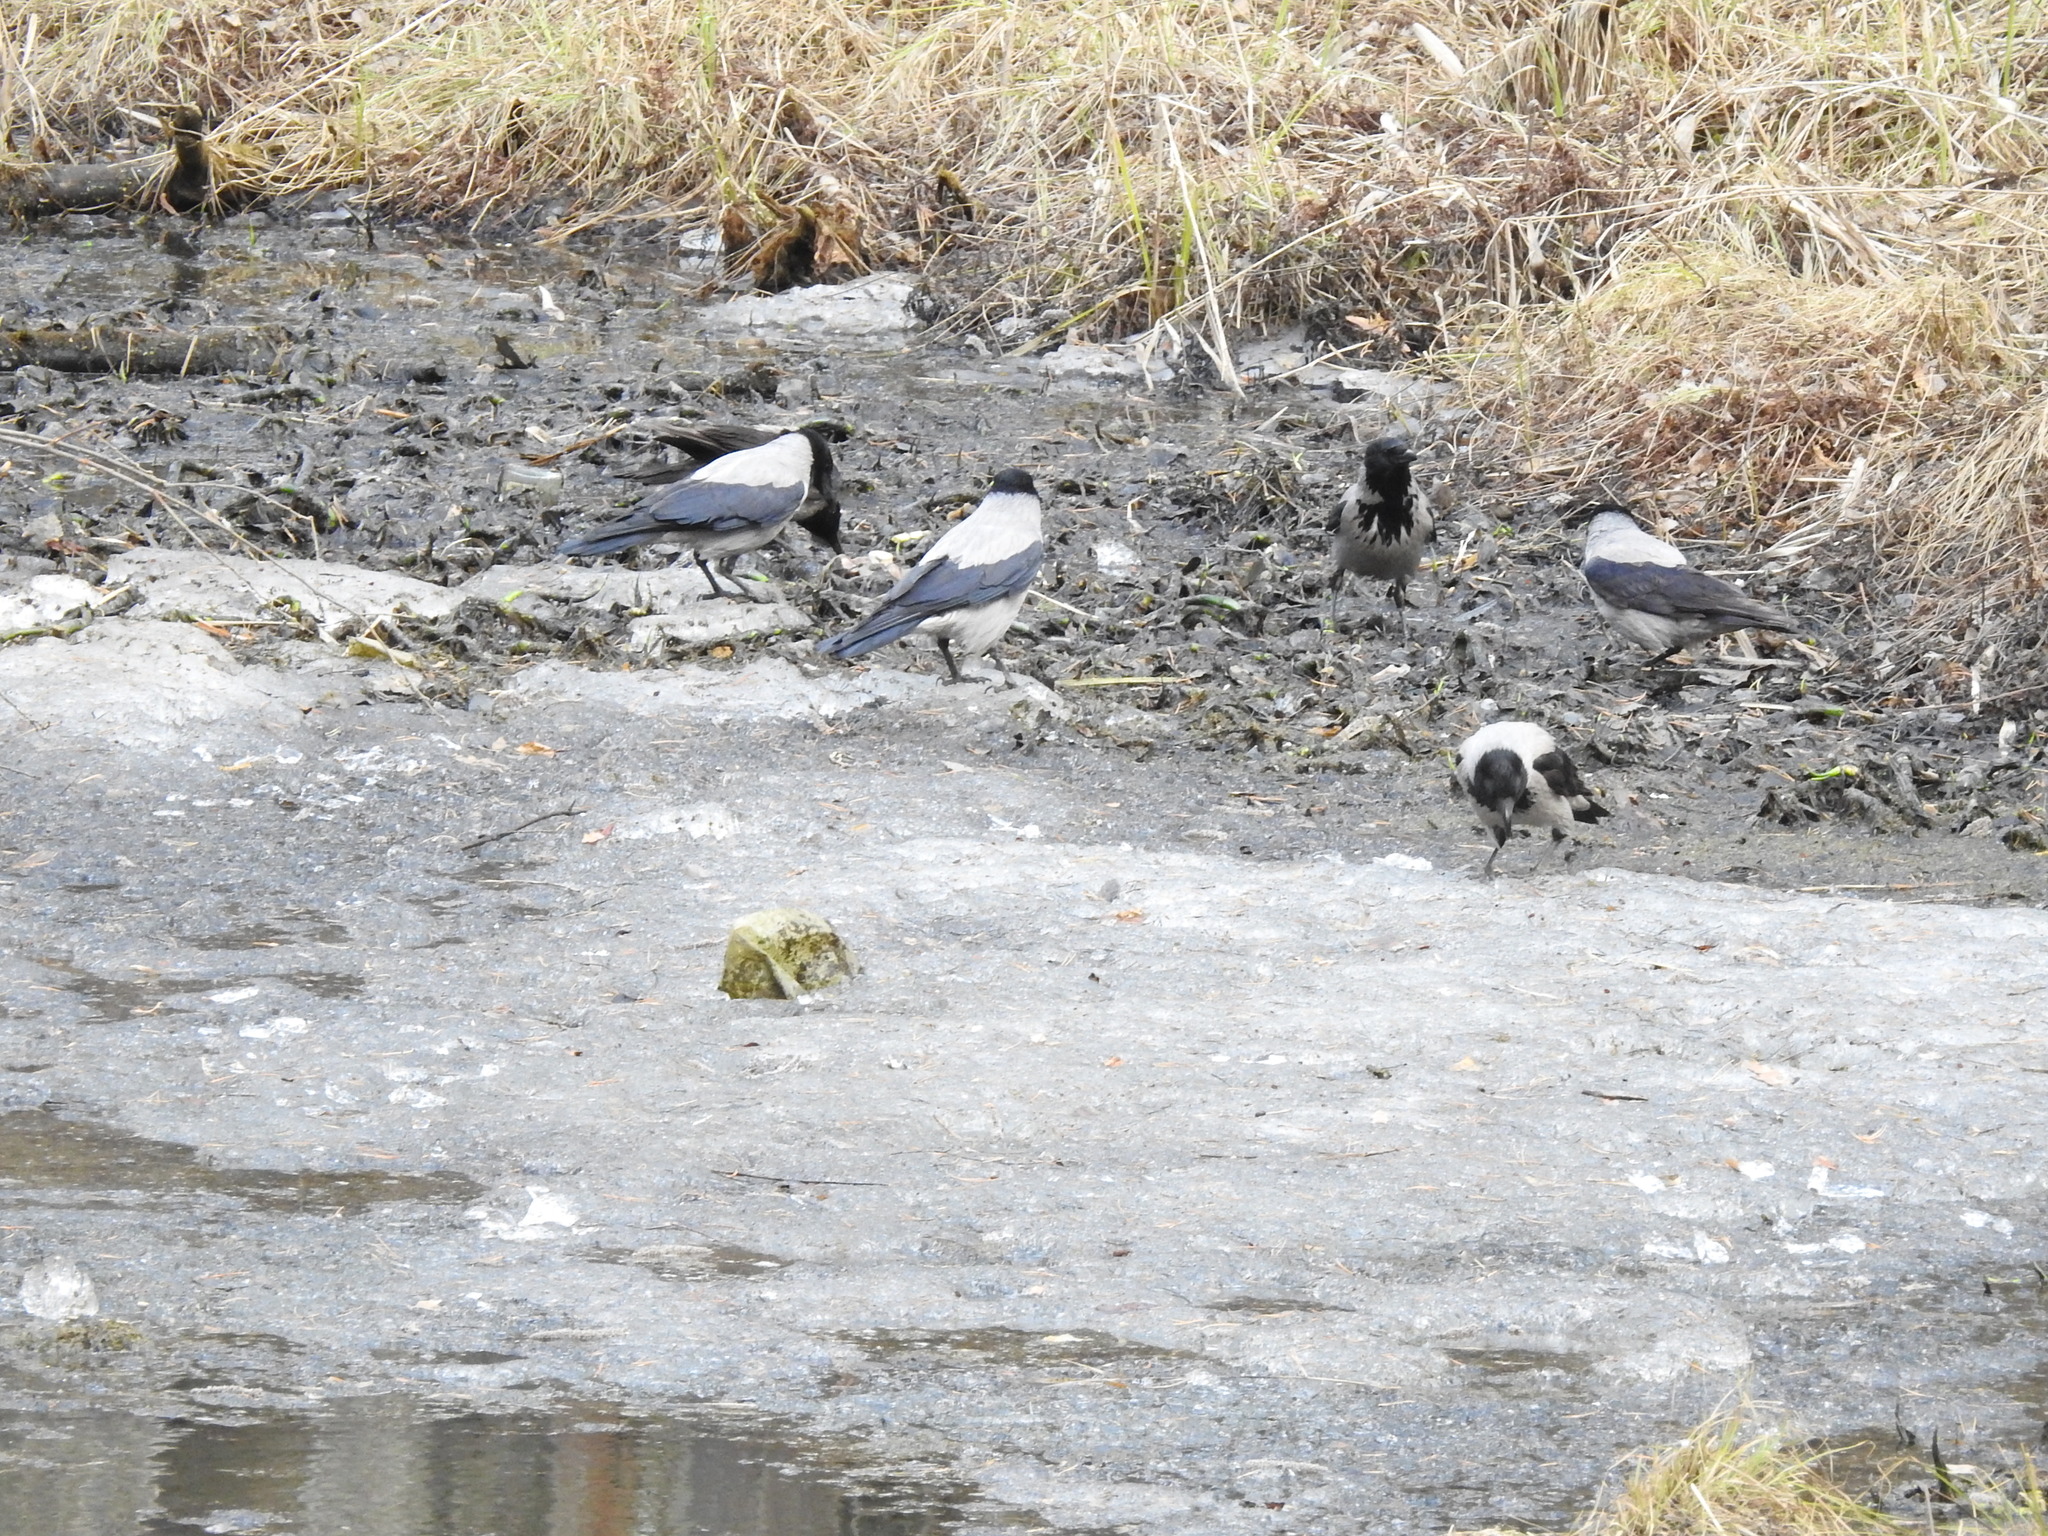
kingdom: Animalia
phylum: Chordata
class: Aves
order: Passeriformes
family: Corvidae
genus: Corvus
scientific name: Corvus cornix
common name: Hooded crow
